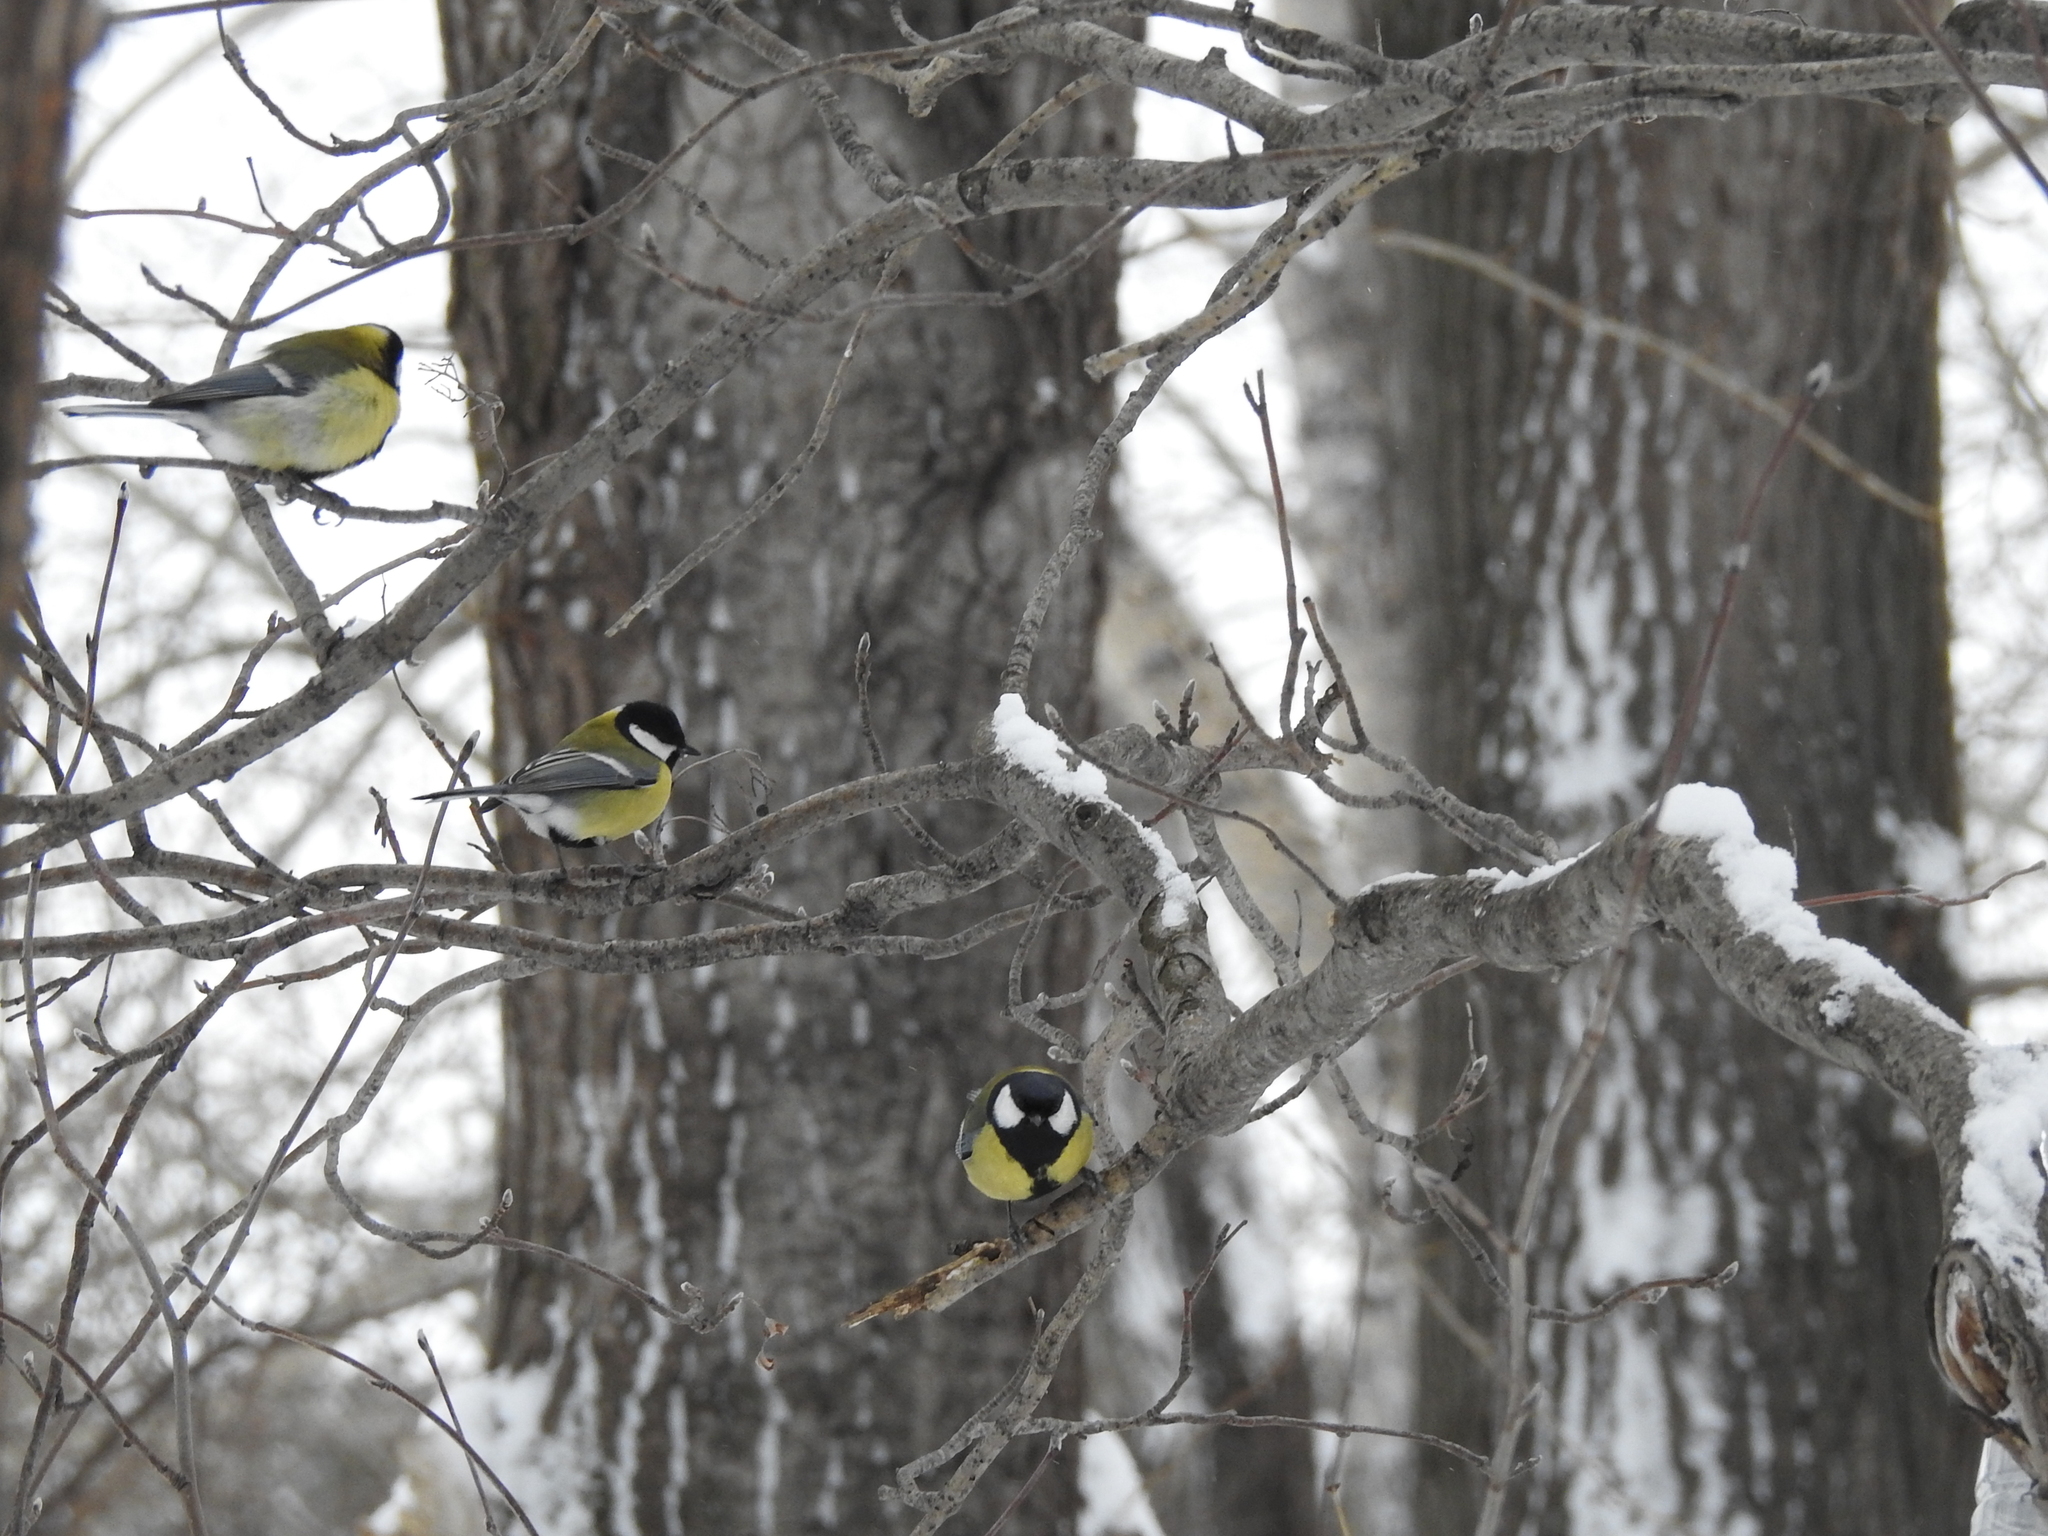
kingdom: Animalia
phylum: Chordata
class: Aves
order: Passeriformes
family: Paridae
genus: Parus
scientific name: Parus major
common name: Great tit
